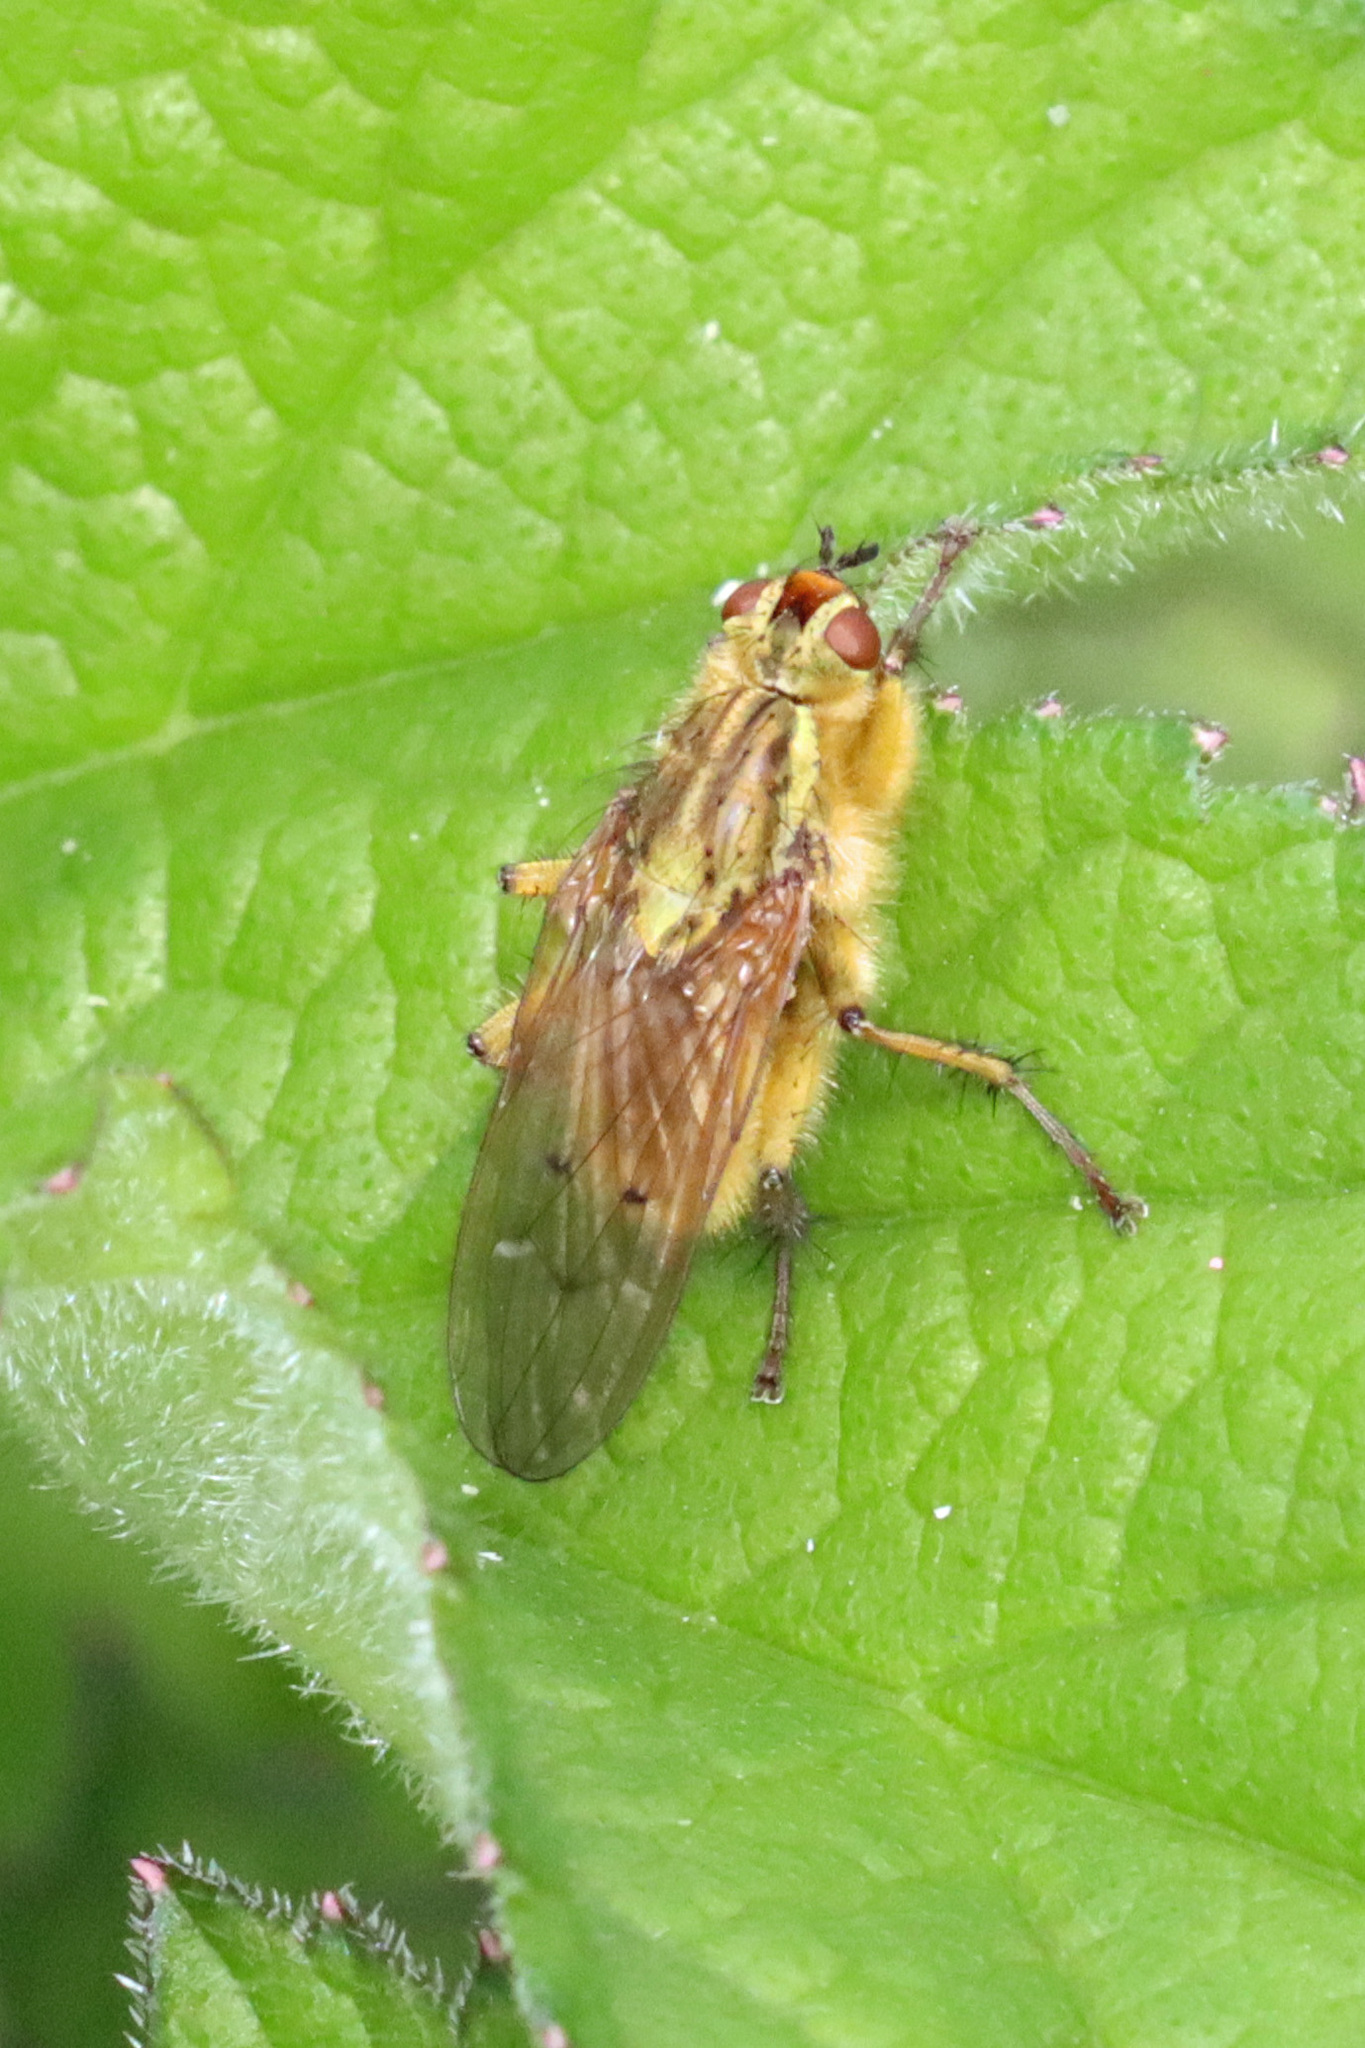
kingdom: Animalia
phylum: Arthropoda
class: Insecta
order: Diptera
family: Scathophagidae
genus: Scathophaga
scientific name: Scathophaga stercoraria
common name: Yellow dung fly
